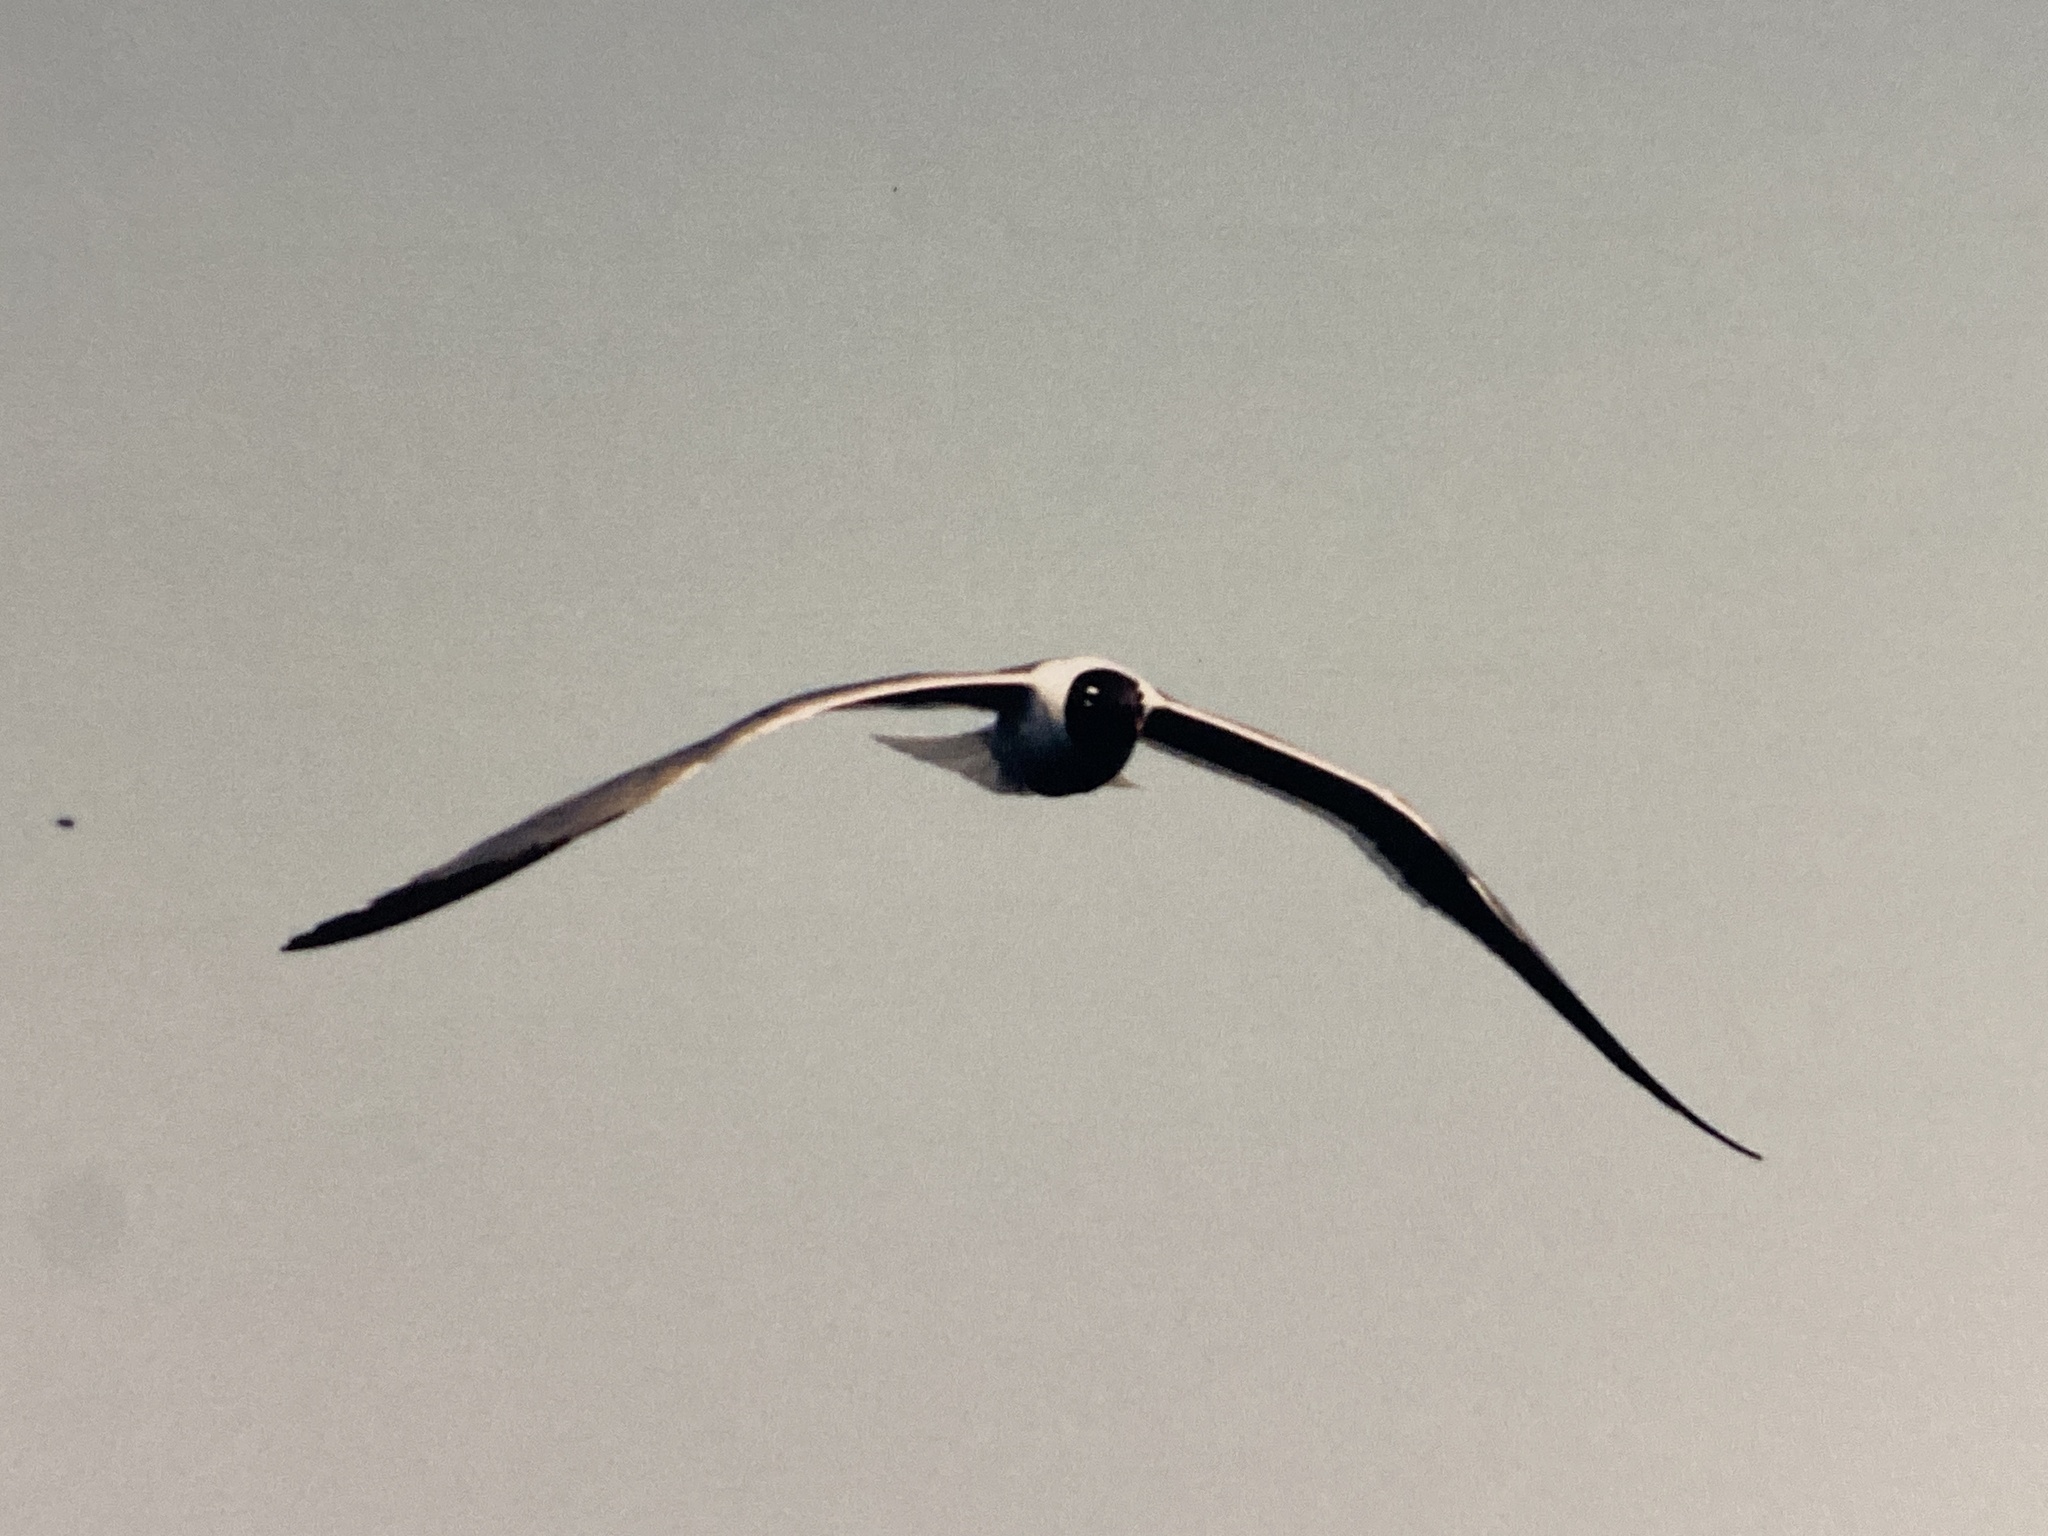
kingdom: Animalia
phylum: Chordata
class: Aves
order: Charadriiformes
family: Laridae
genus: Leucophaeus
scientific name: Leucophaeus atricilla
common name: Laughing gull
